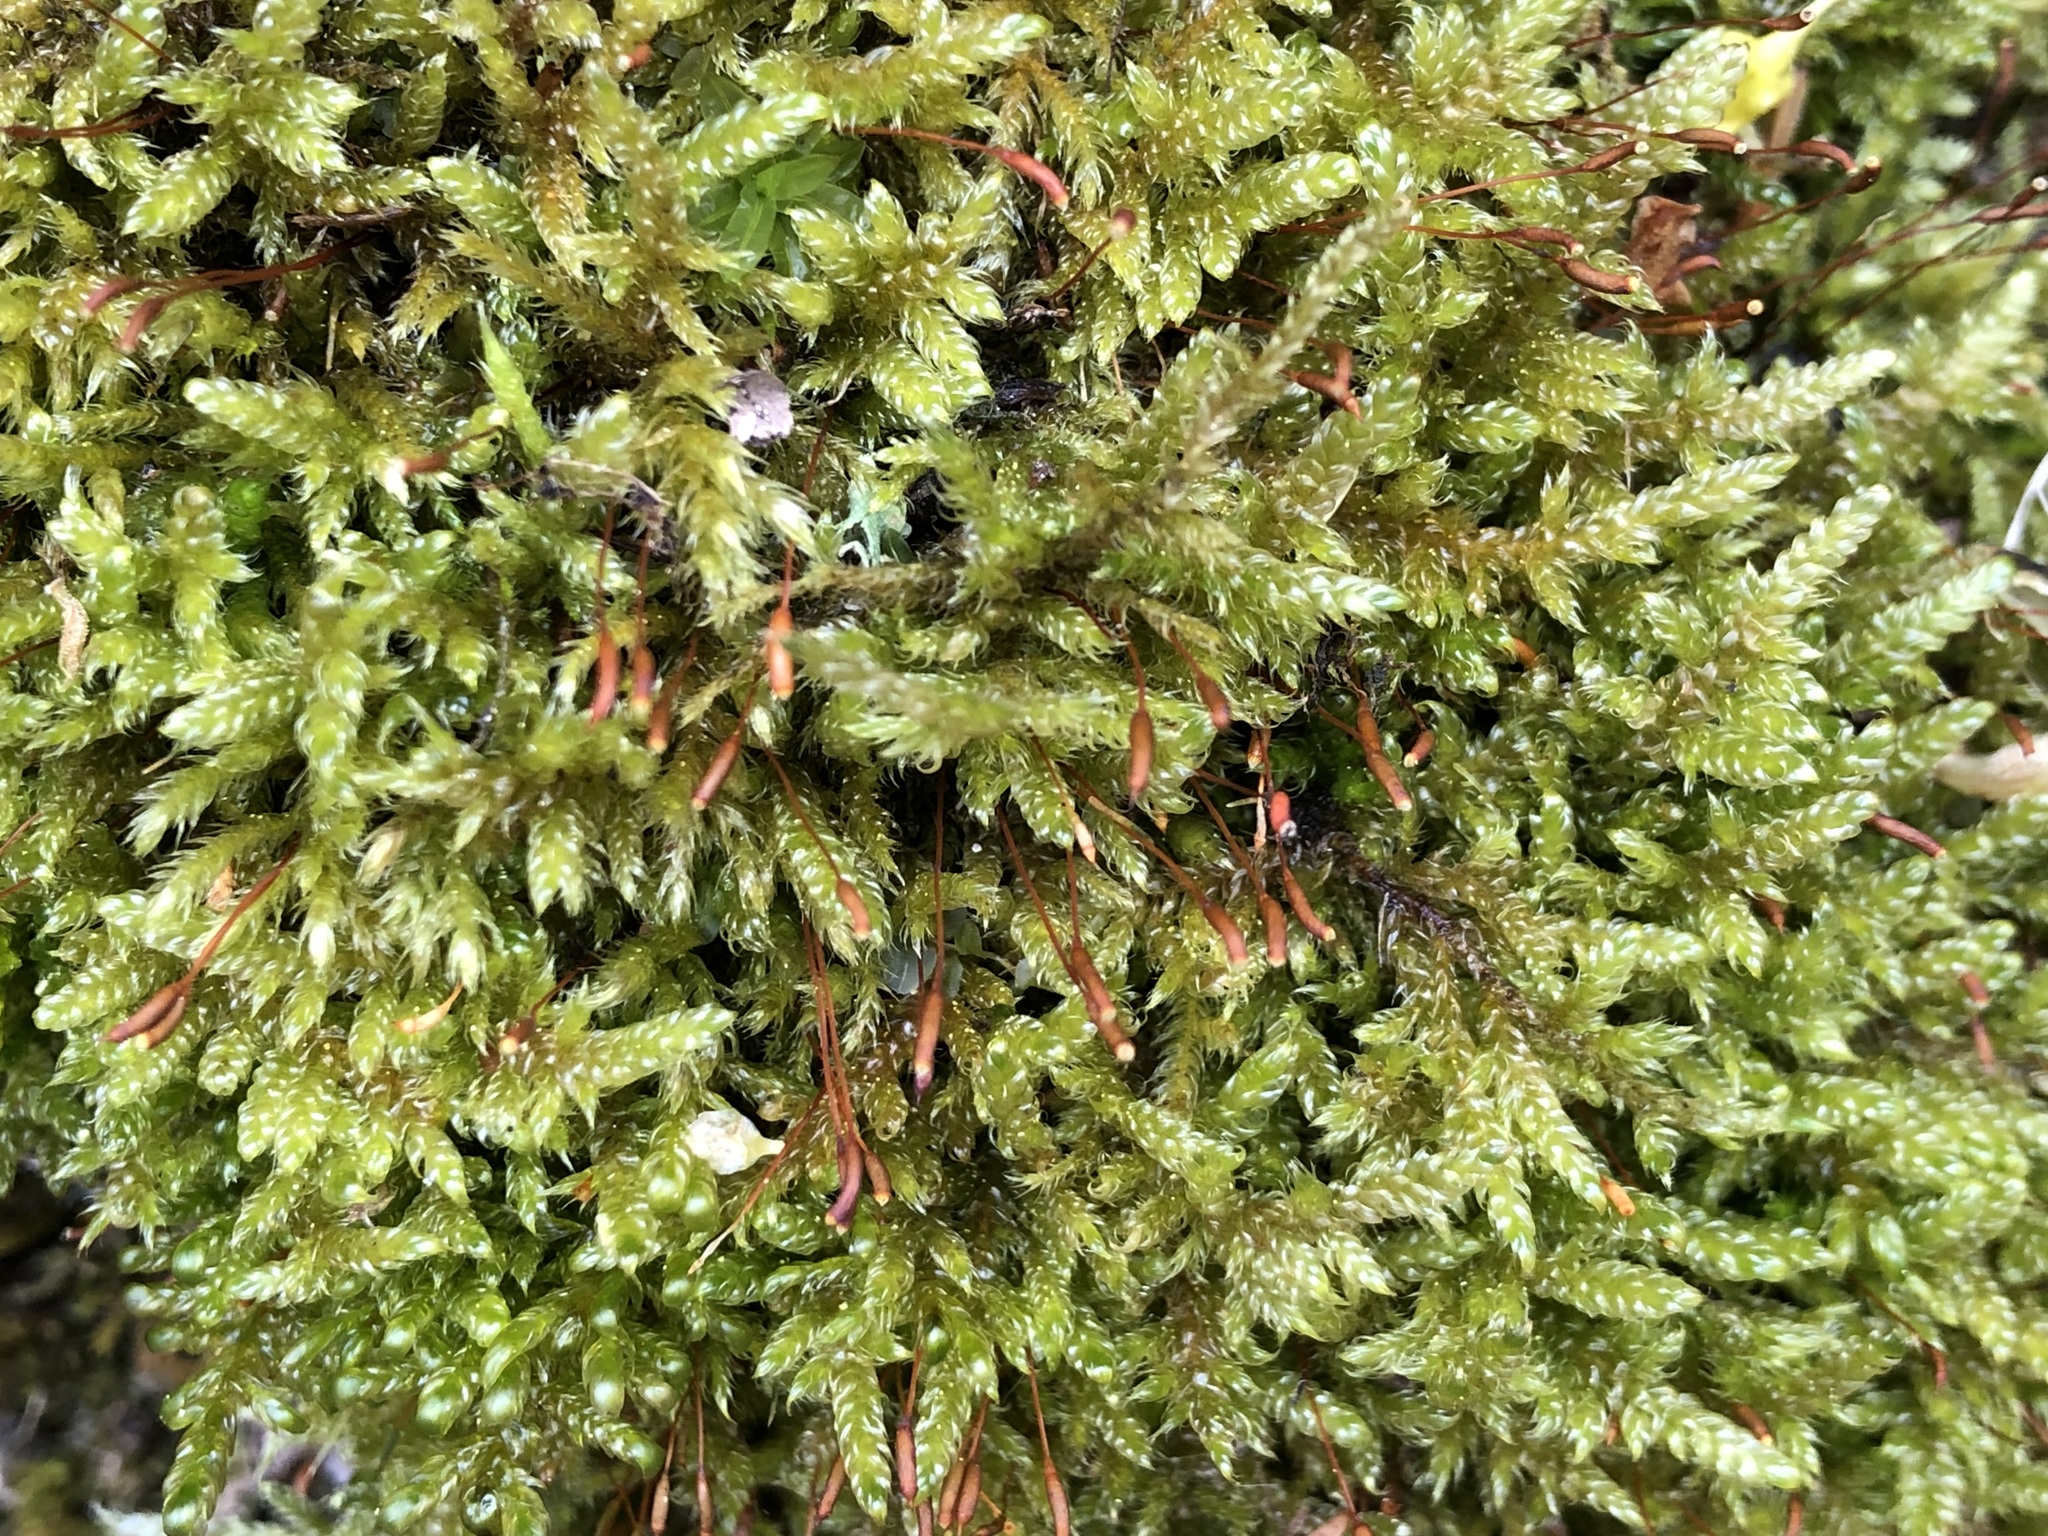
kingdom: Plantae
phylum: Bryophyta
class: Bryopsida
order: Hypnales
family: Hypnaceae
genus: Hypnum
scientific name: Hypnum cupressiforme
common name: Cypress-leaved plait-moss
